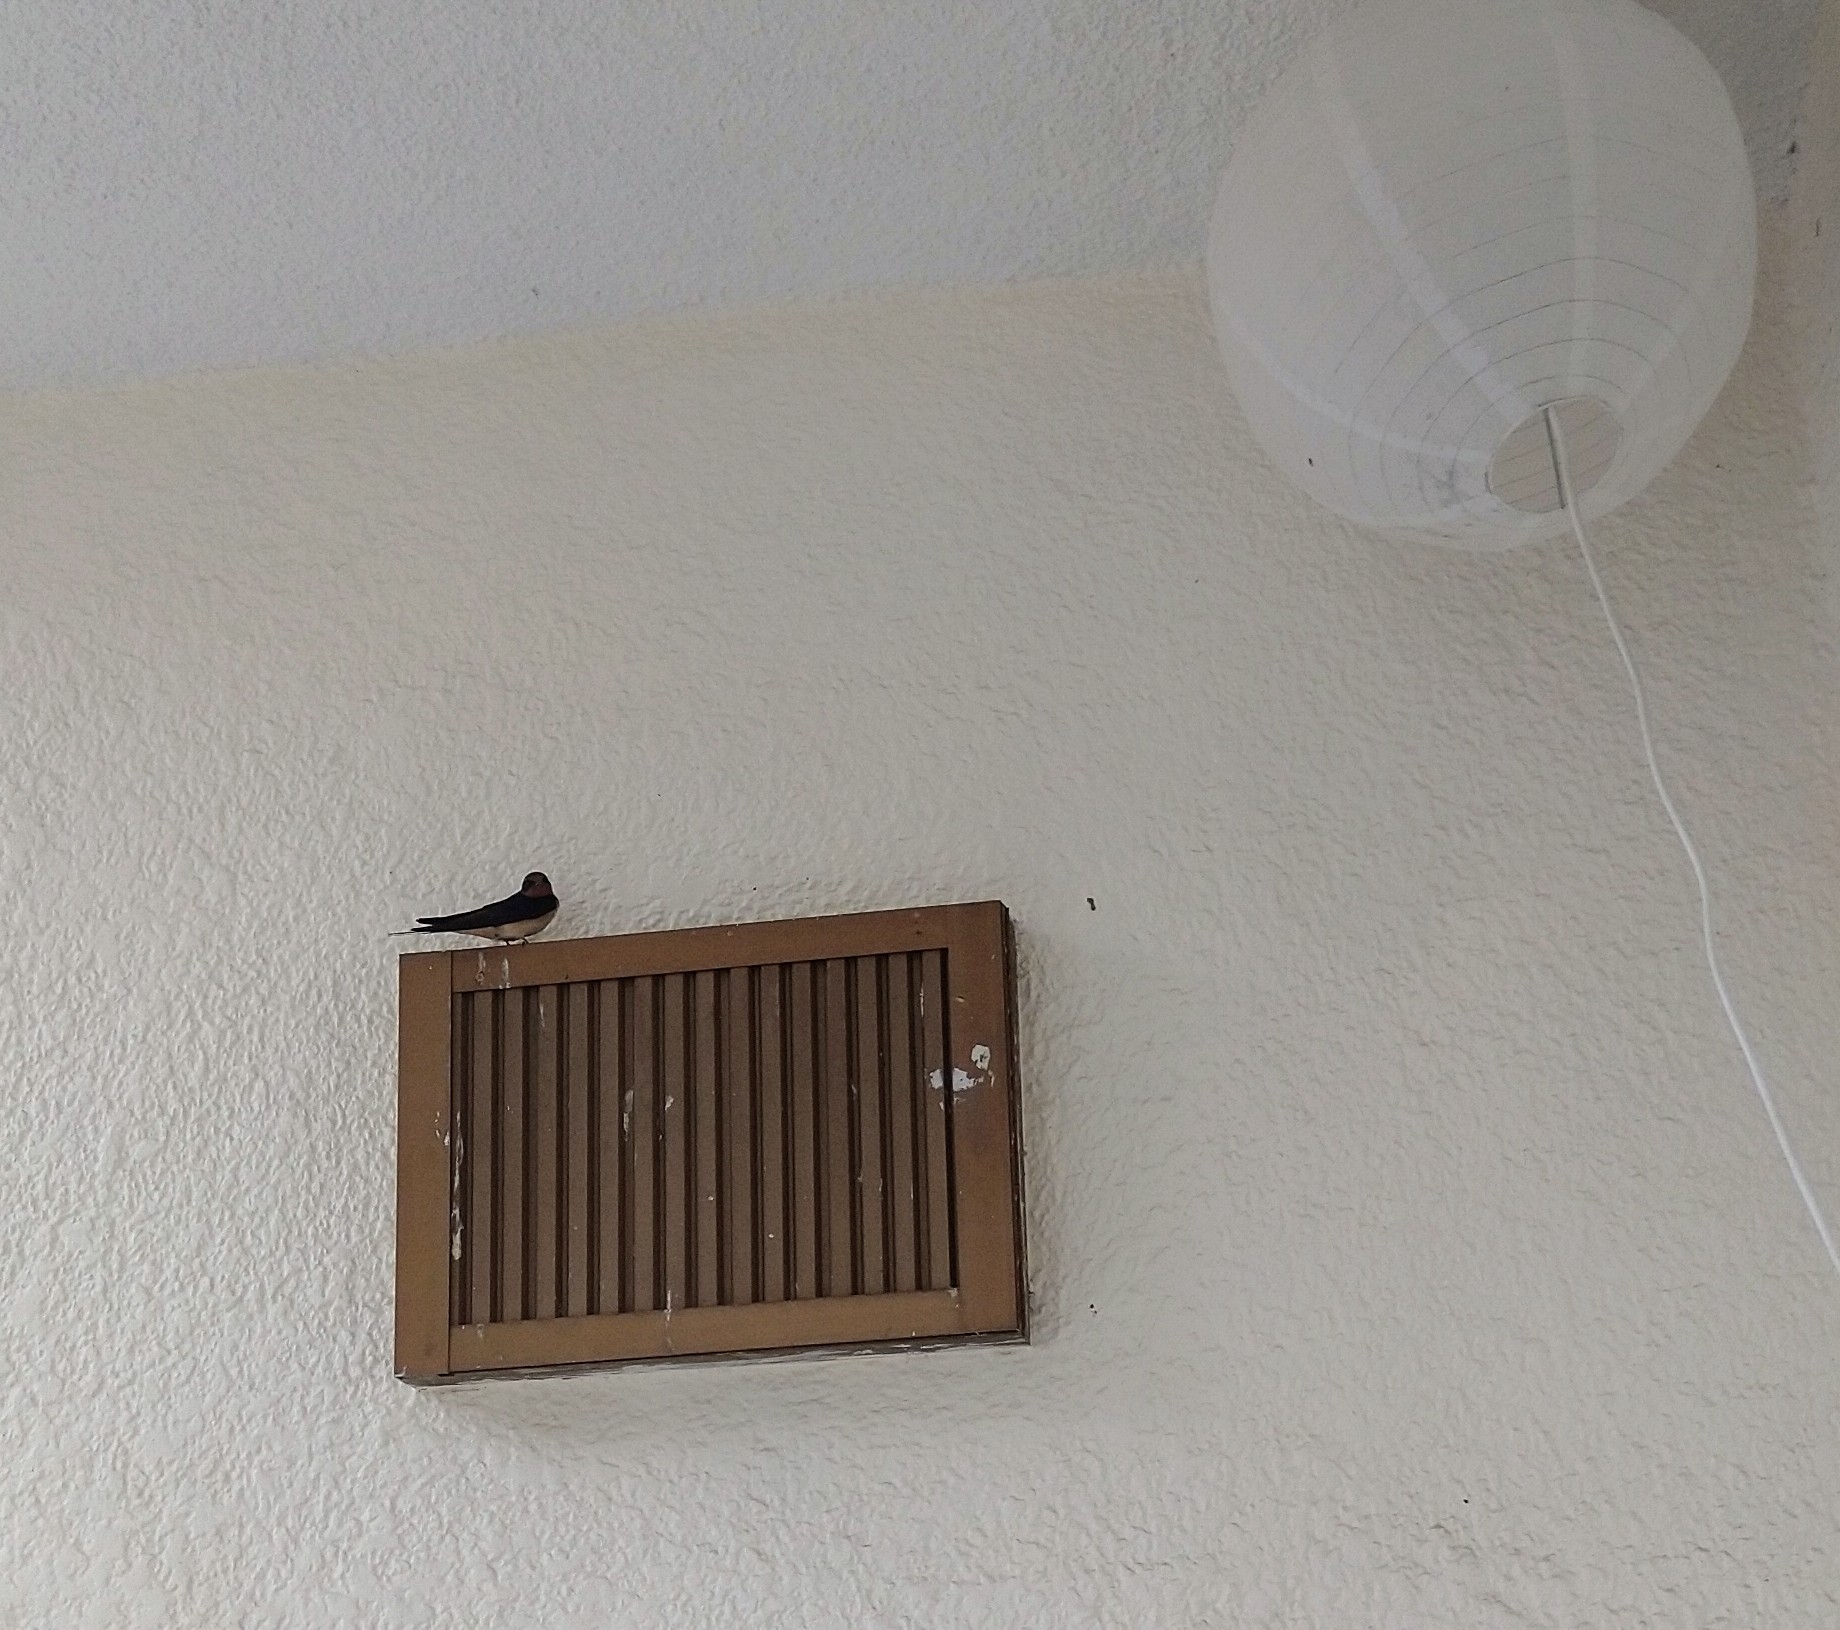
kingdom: Animalia
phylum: Chordata
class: Aves
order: Passeriformes
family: Hirundinidae
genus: Hirundo
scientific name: Hirundo rustica
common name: Barn swallow
